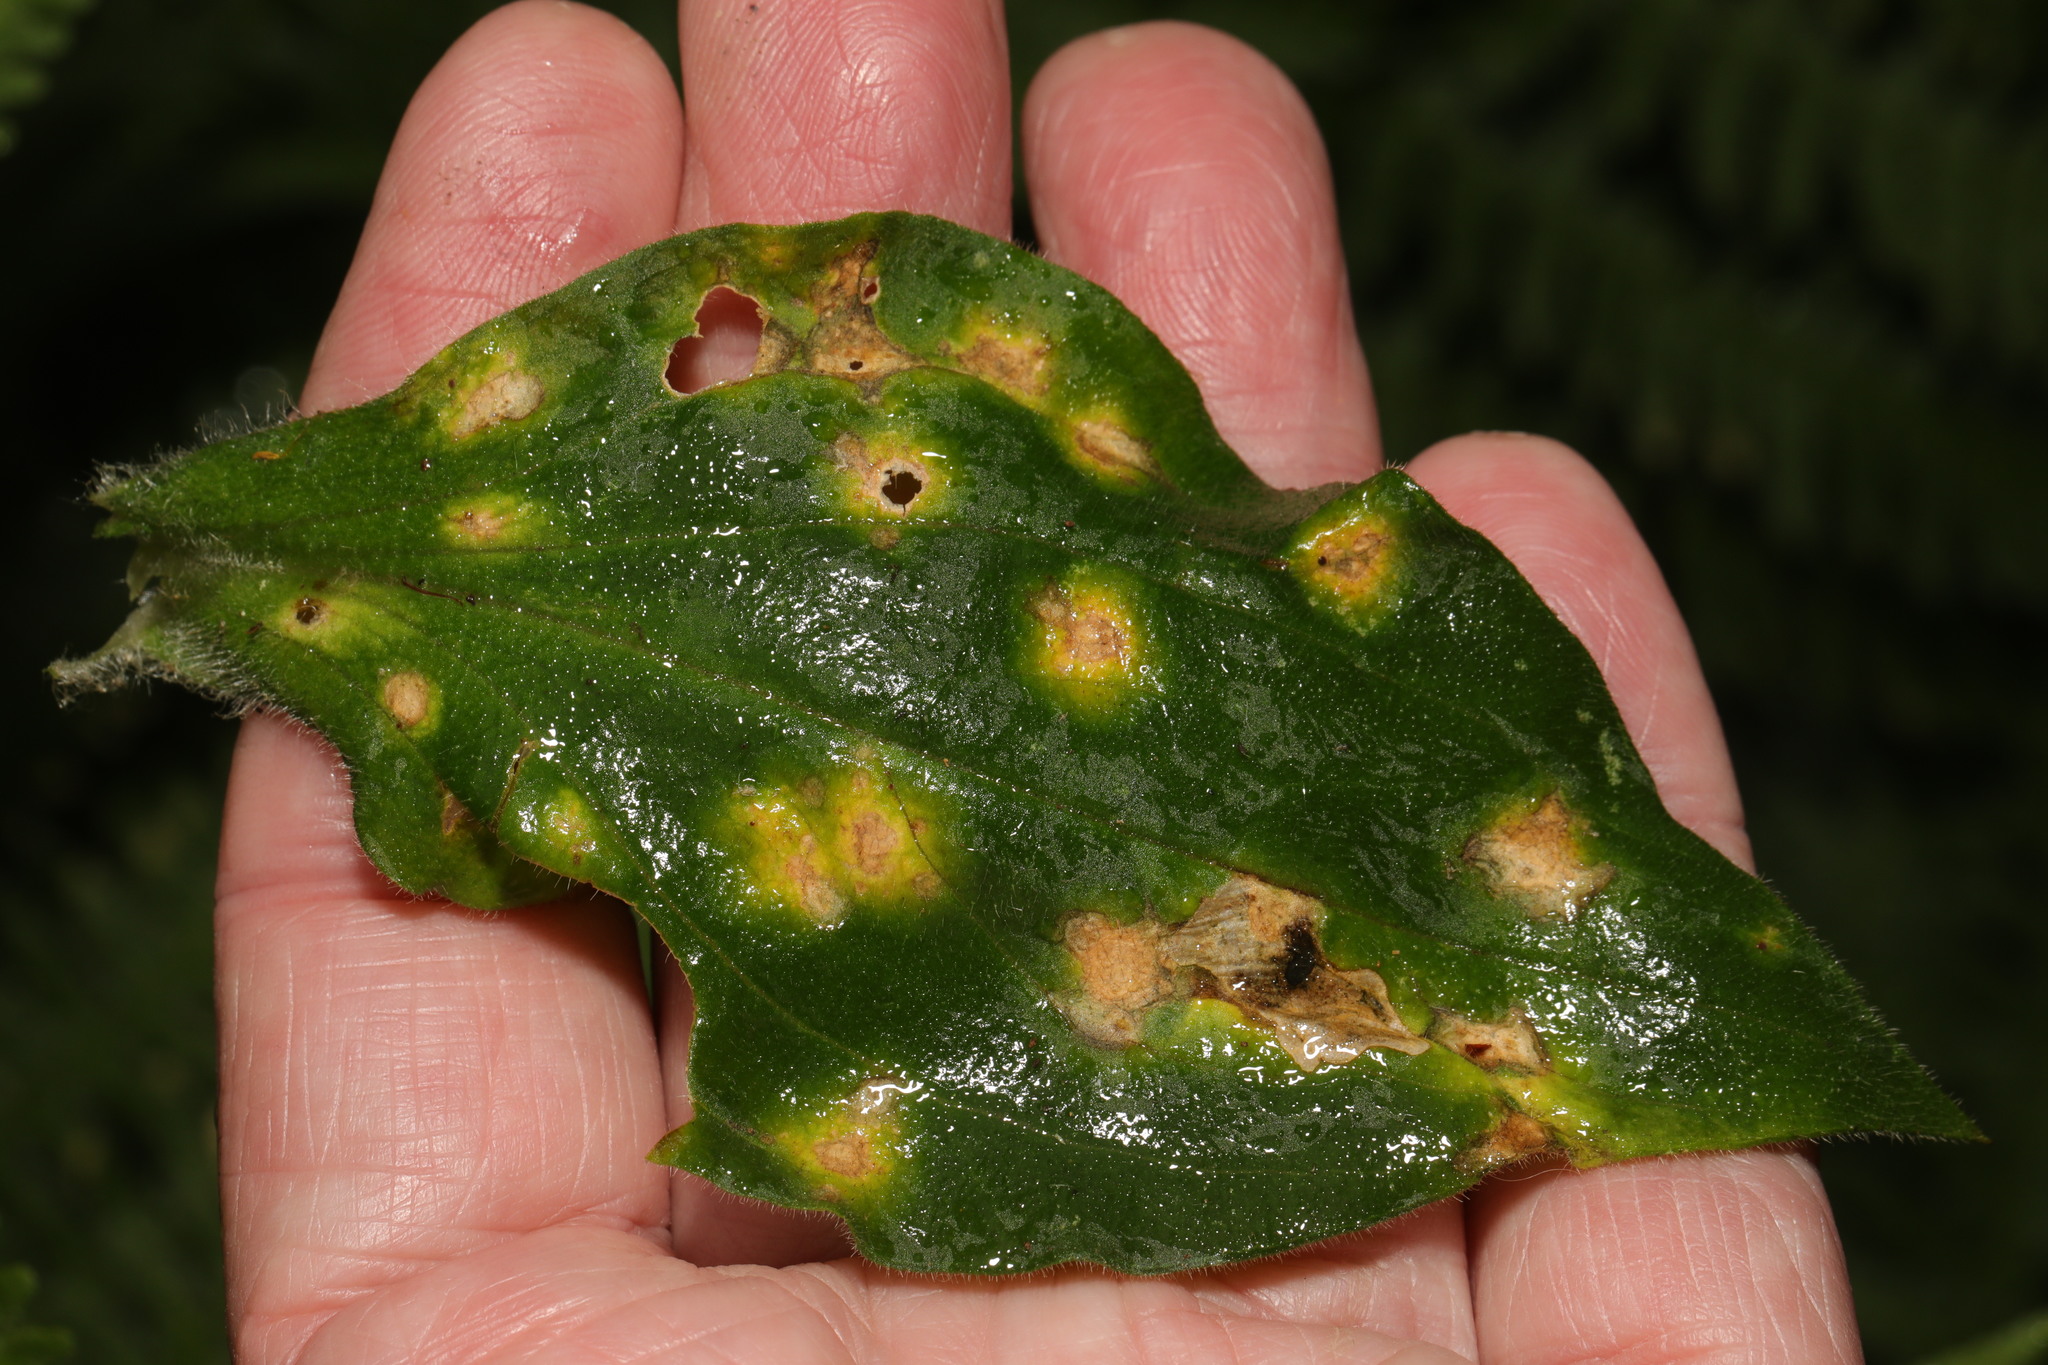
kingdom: Fungi
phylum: Basidiomycota
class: Pucciniomycetes
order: Pucciniales
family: Pucciniaceae
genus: Puccinia
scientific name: Puccinia arenariae
